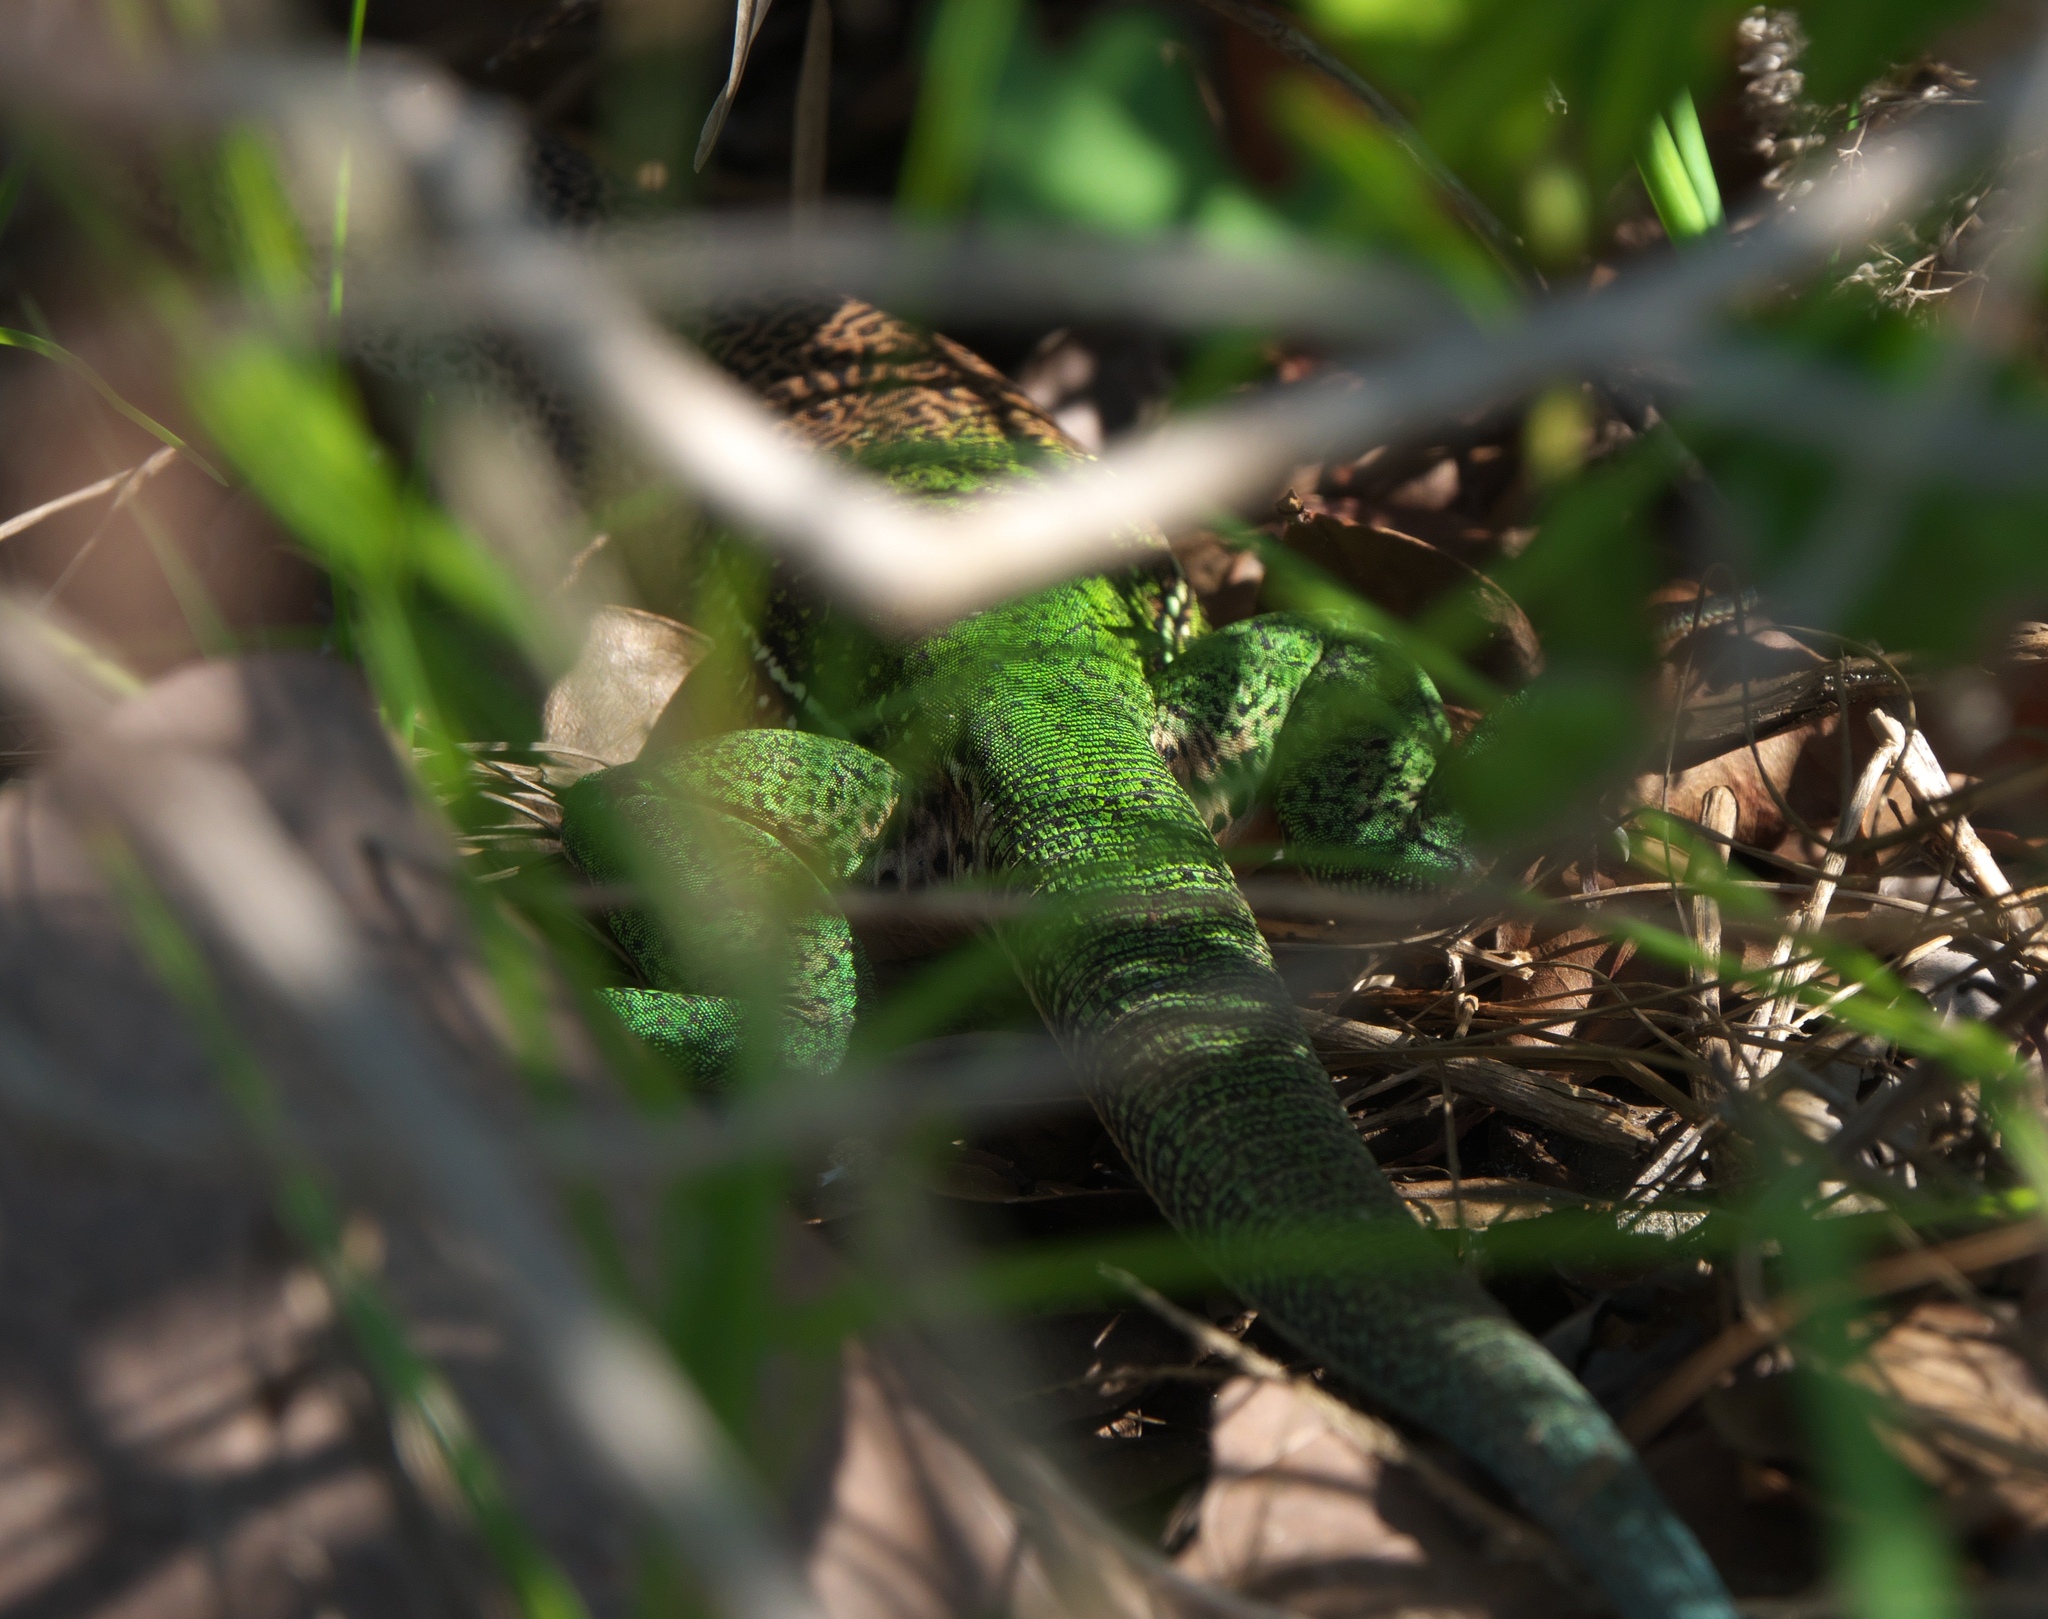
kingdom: Animalia
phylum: Chordata
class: Squamata
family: Teiidae
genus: Ameiva
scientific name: Ameiva ameiva
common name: Giant ameiva
